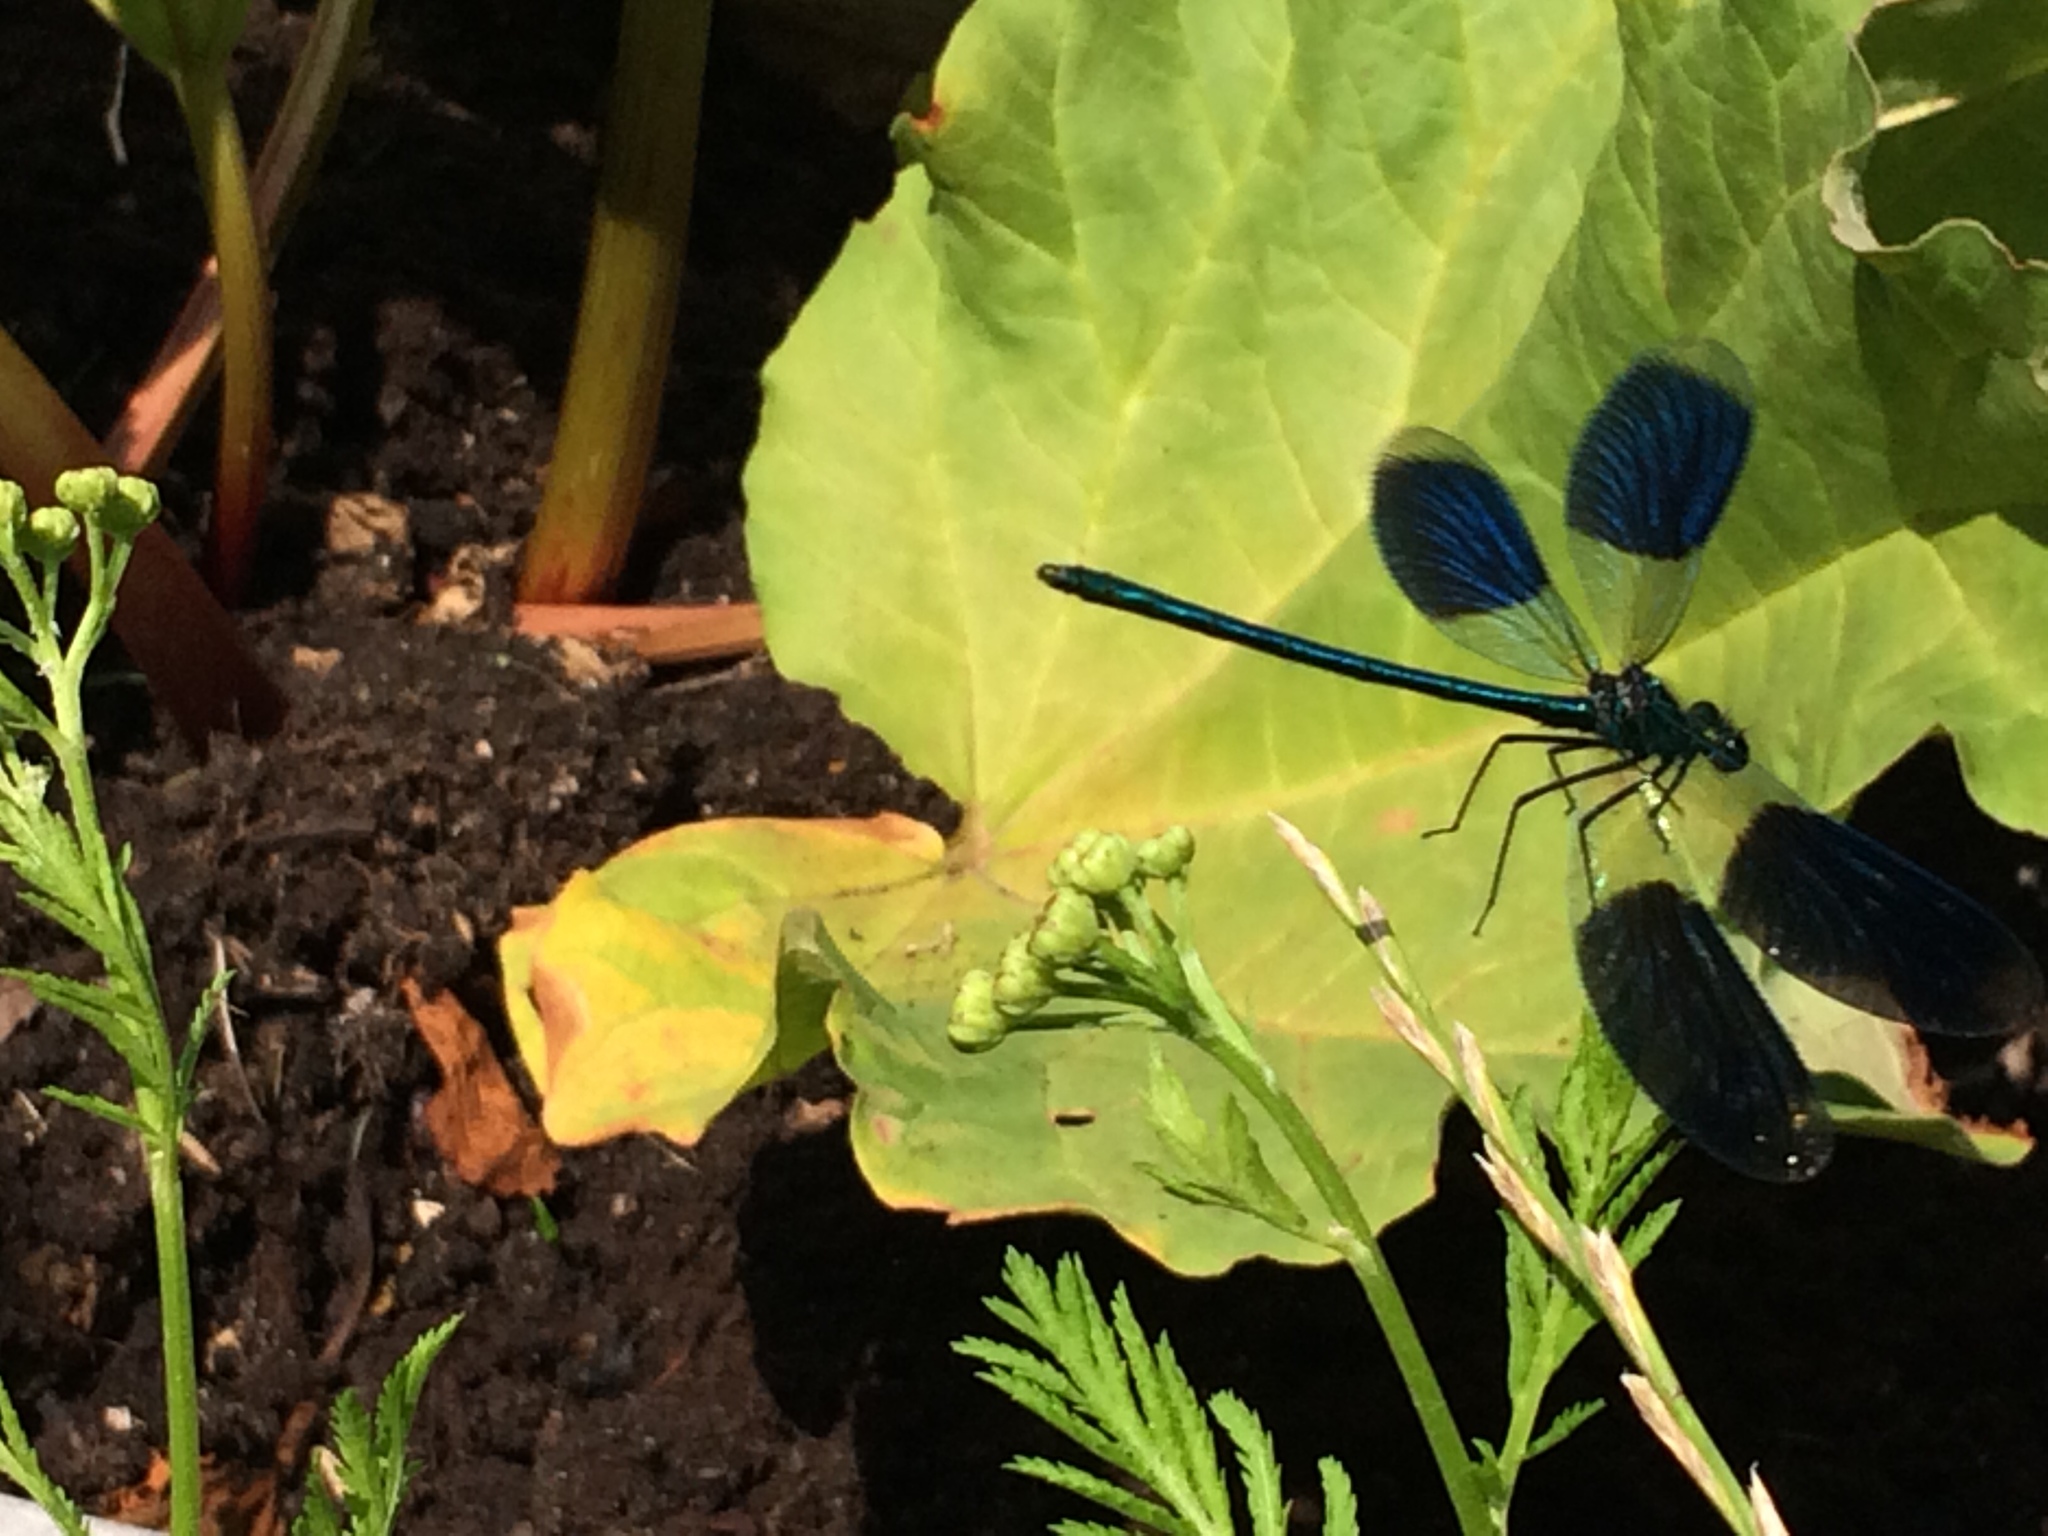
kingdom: Animalia
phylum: Arthropoda
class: Insecta
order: Odonata
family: Calopterygidae
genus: Calopteryx
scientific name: Calopteryx splendens
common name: Banded demoiselle
